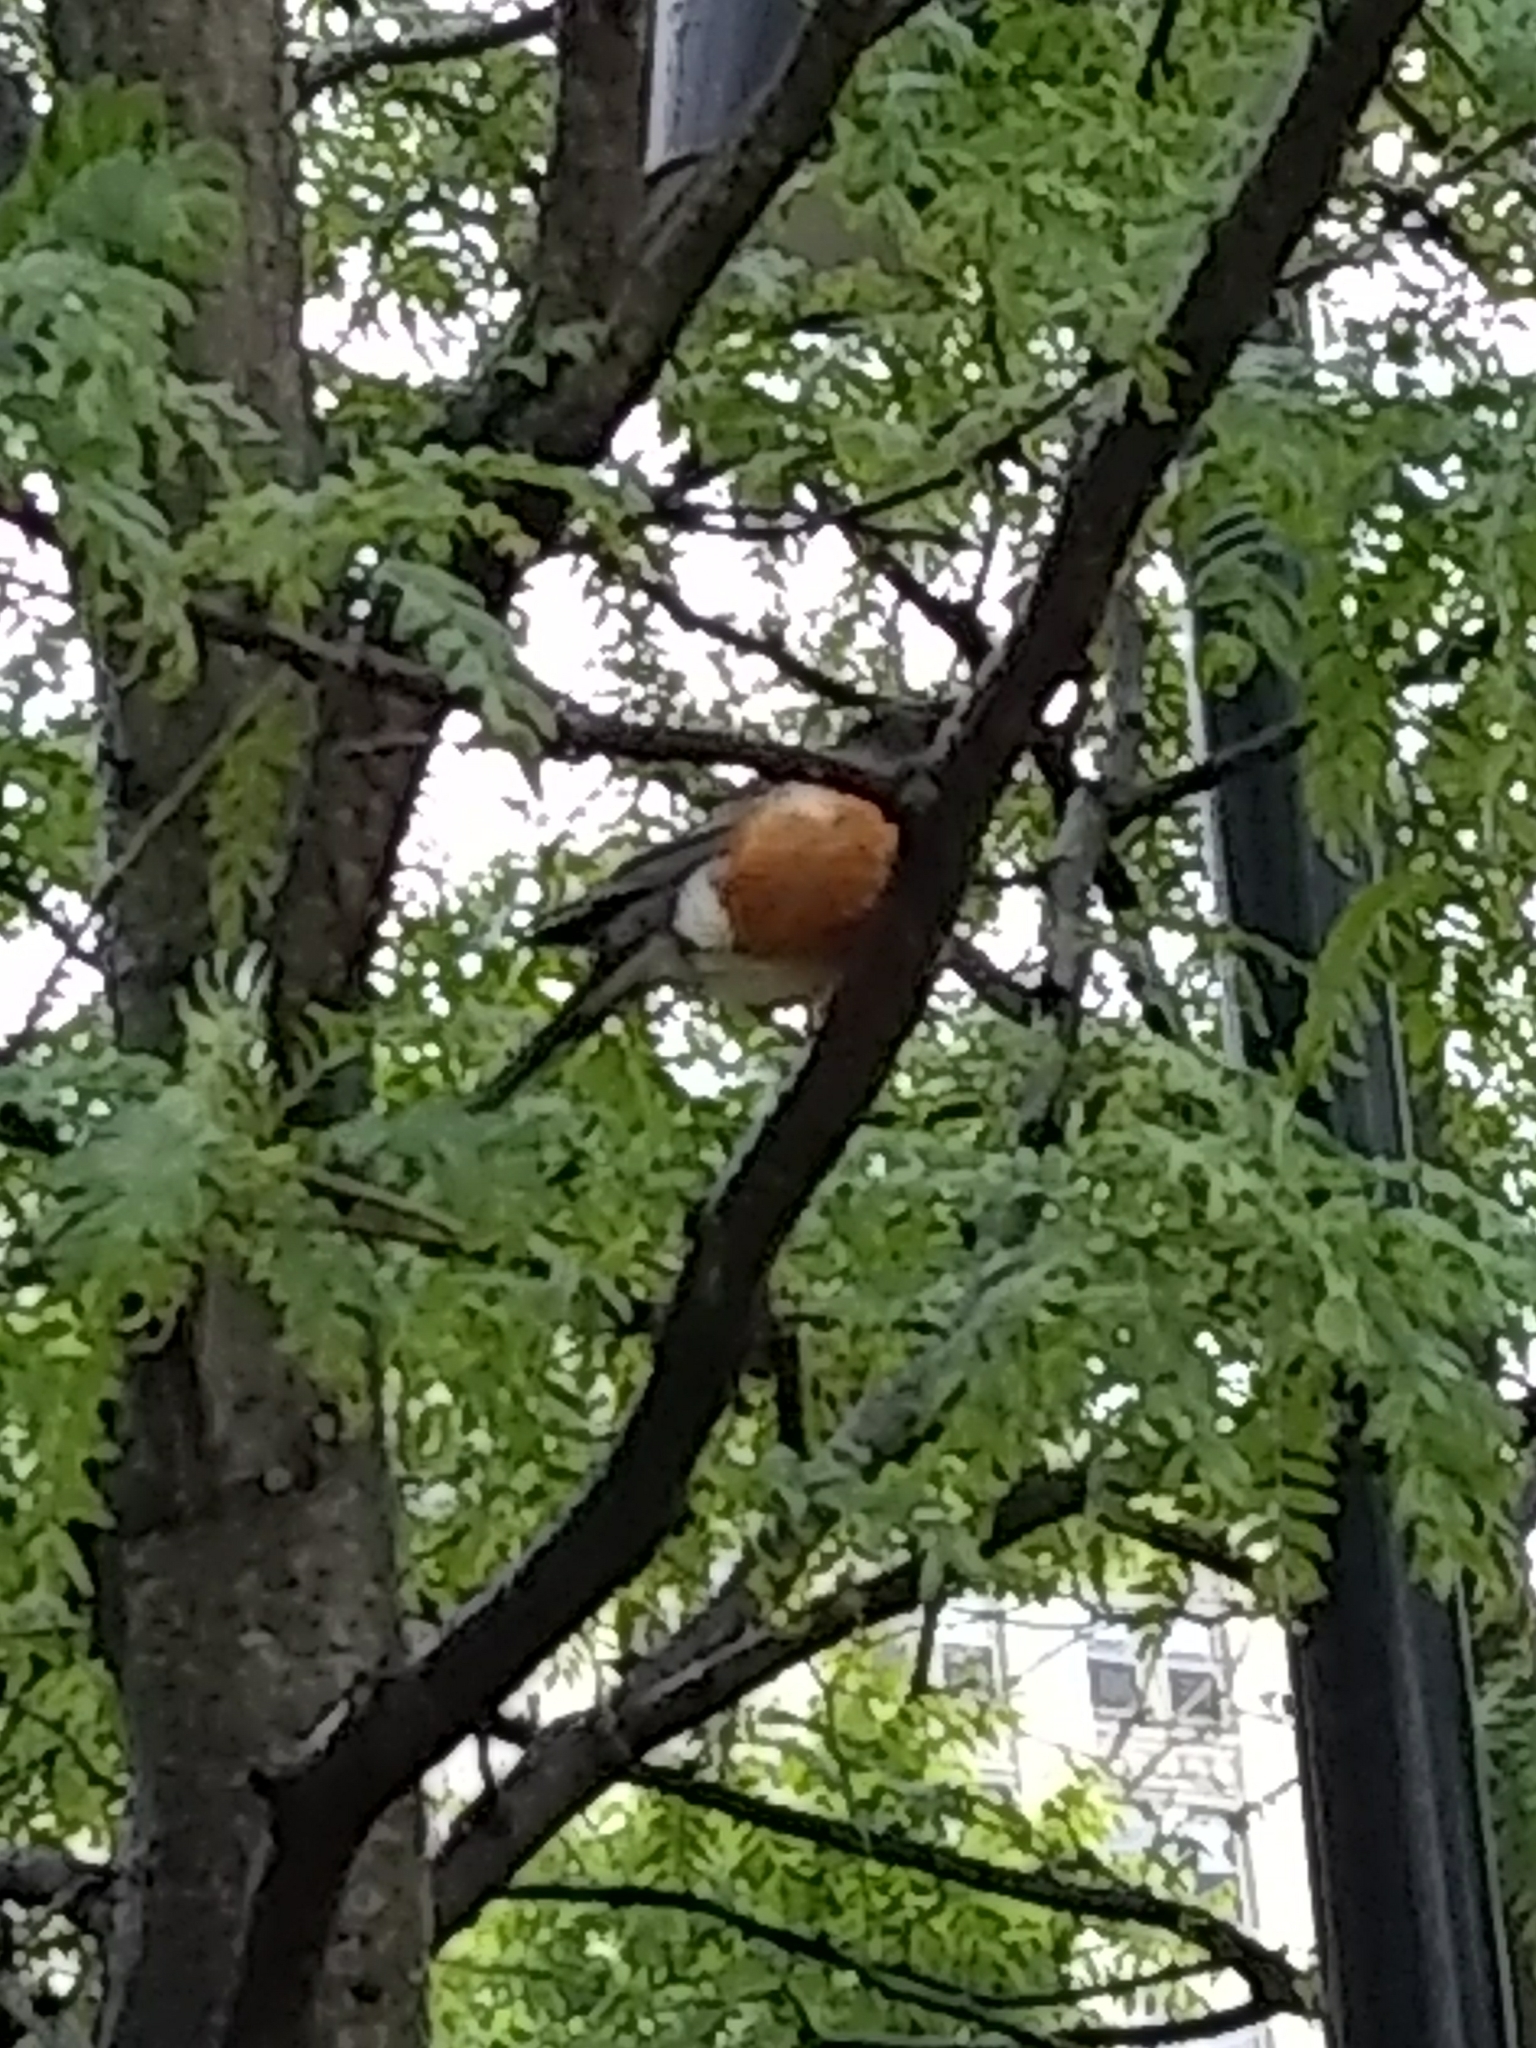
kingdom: Animalia
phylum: Chordata
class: Aves
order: Passeriformes
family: Turdidae
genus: Turdus
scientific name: Turdus migratorius
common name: American robin
